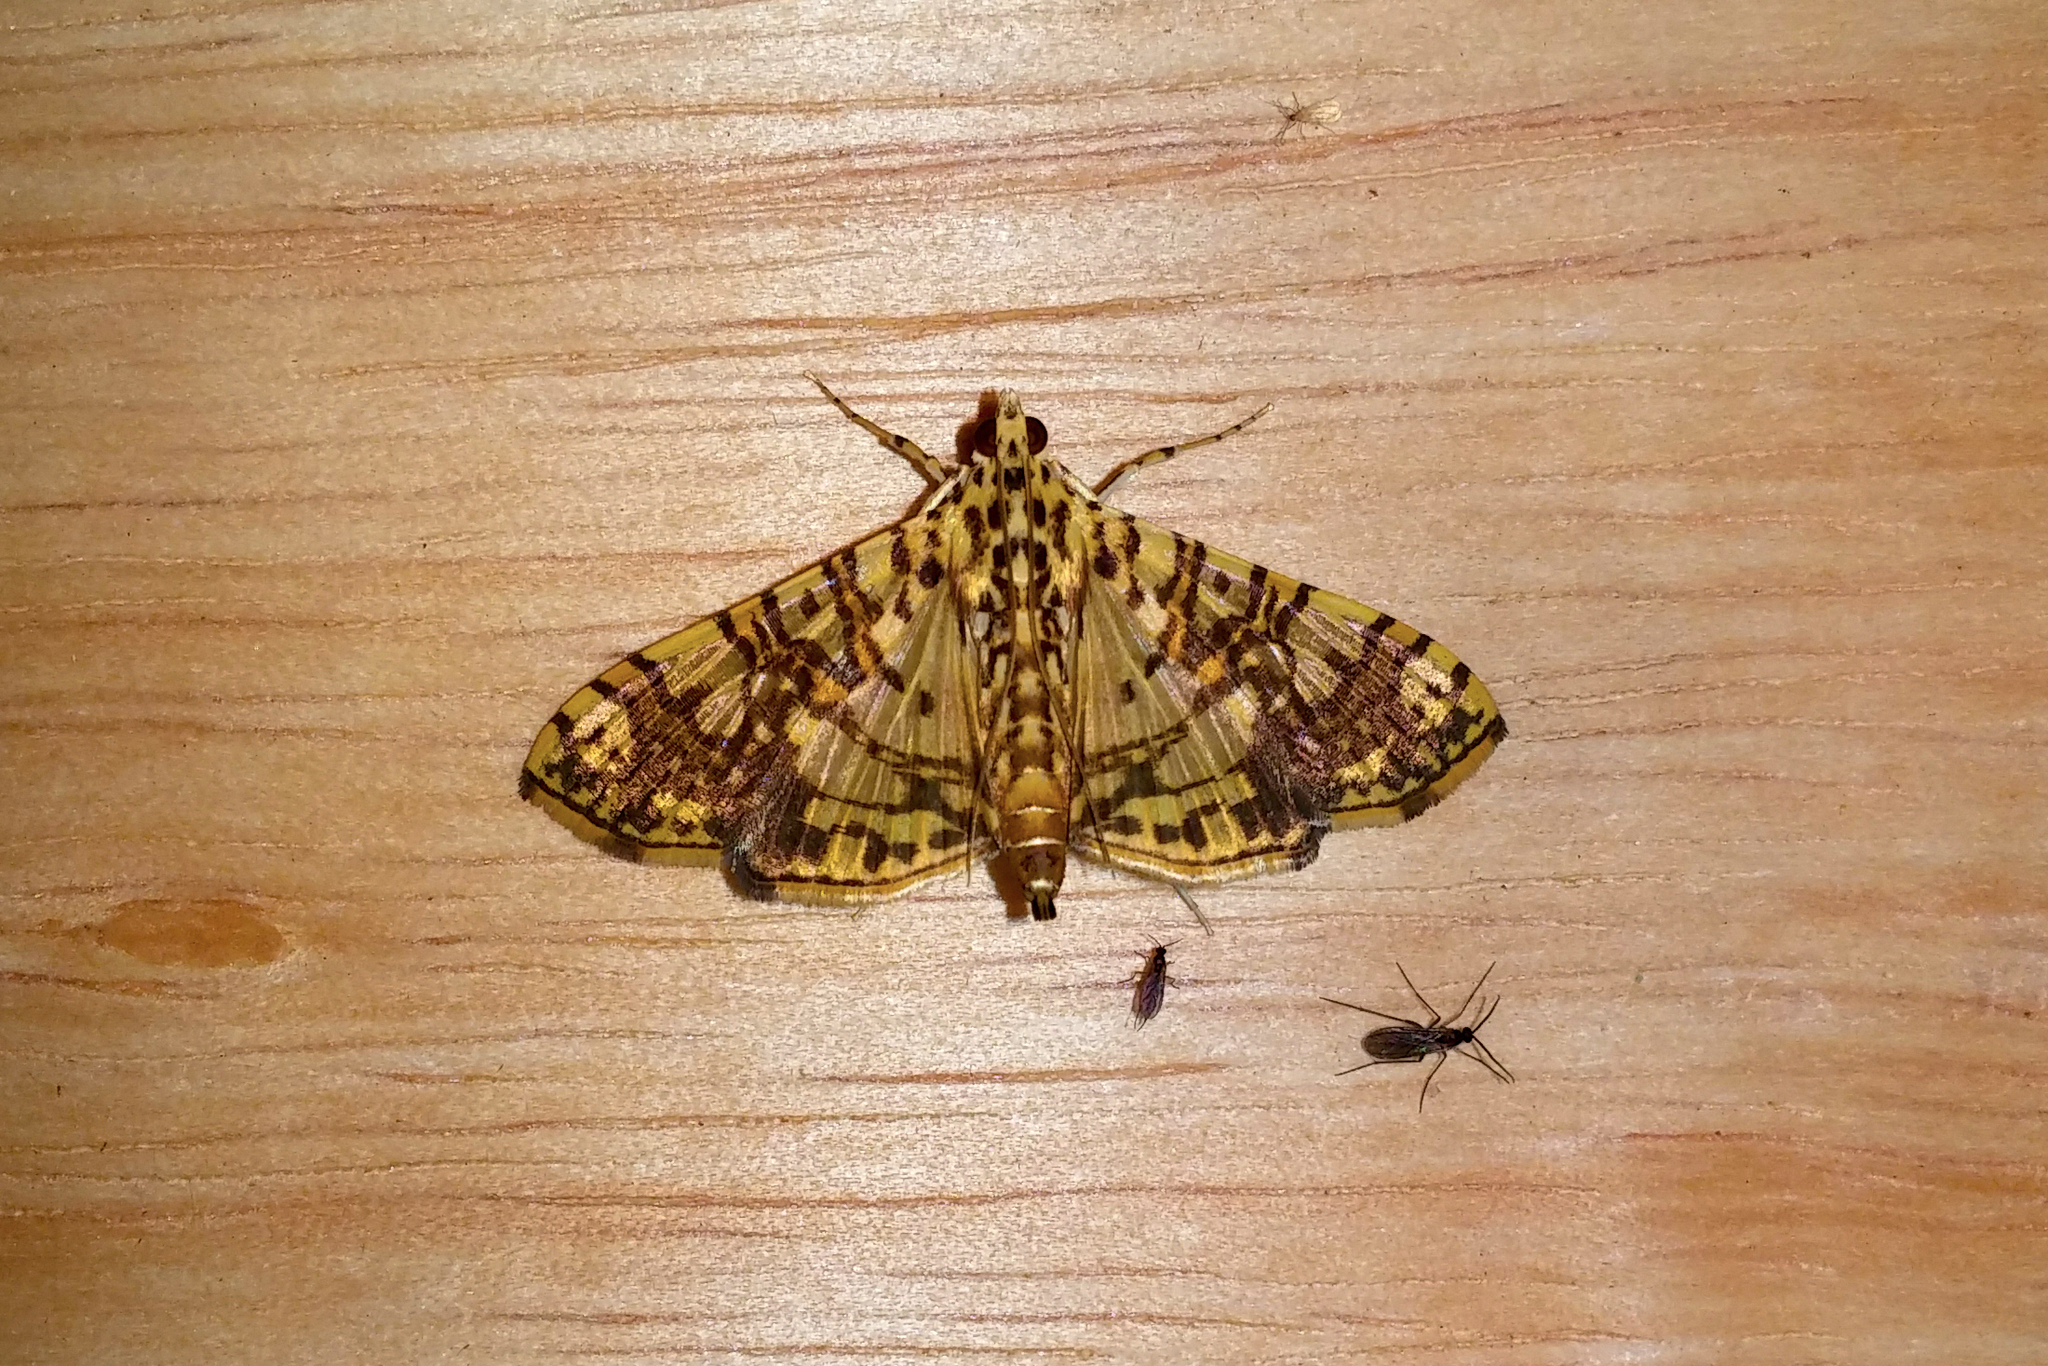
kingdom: Animalia
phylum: Arthropoda
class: Insecta
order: Lepidoptera
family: Crambidae
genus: Glyphodes
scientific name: Glyphodes caesalis
